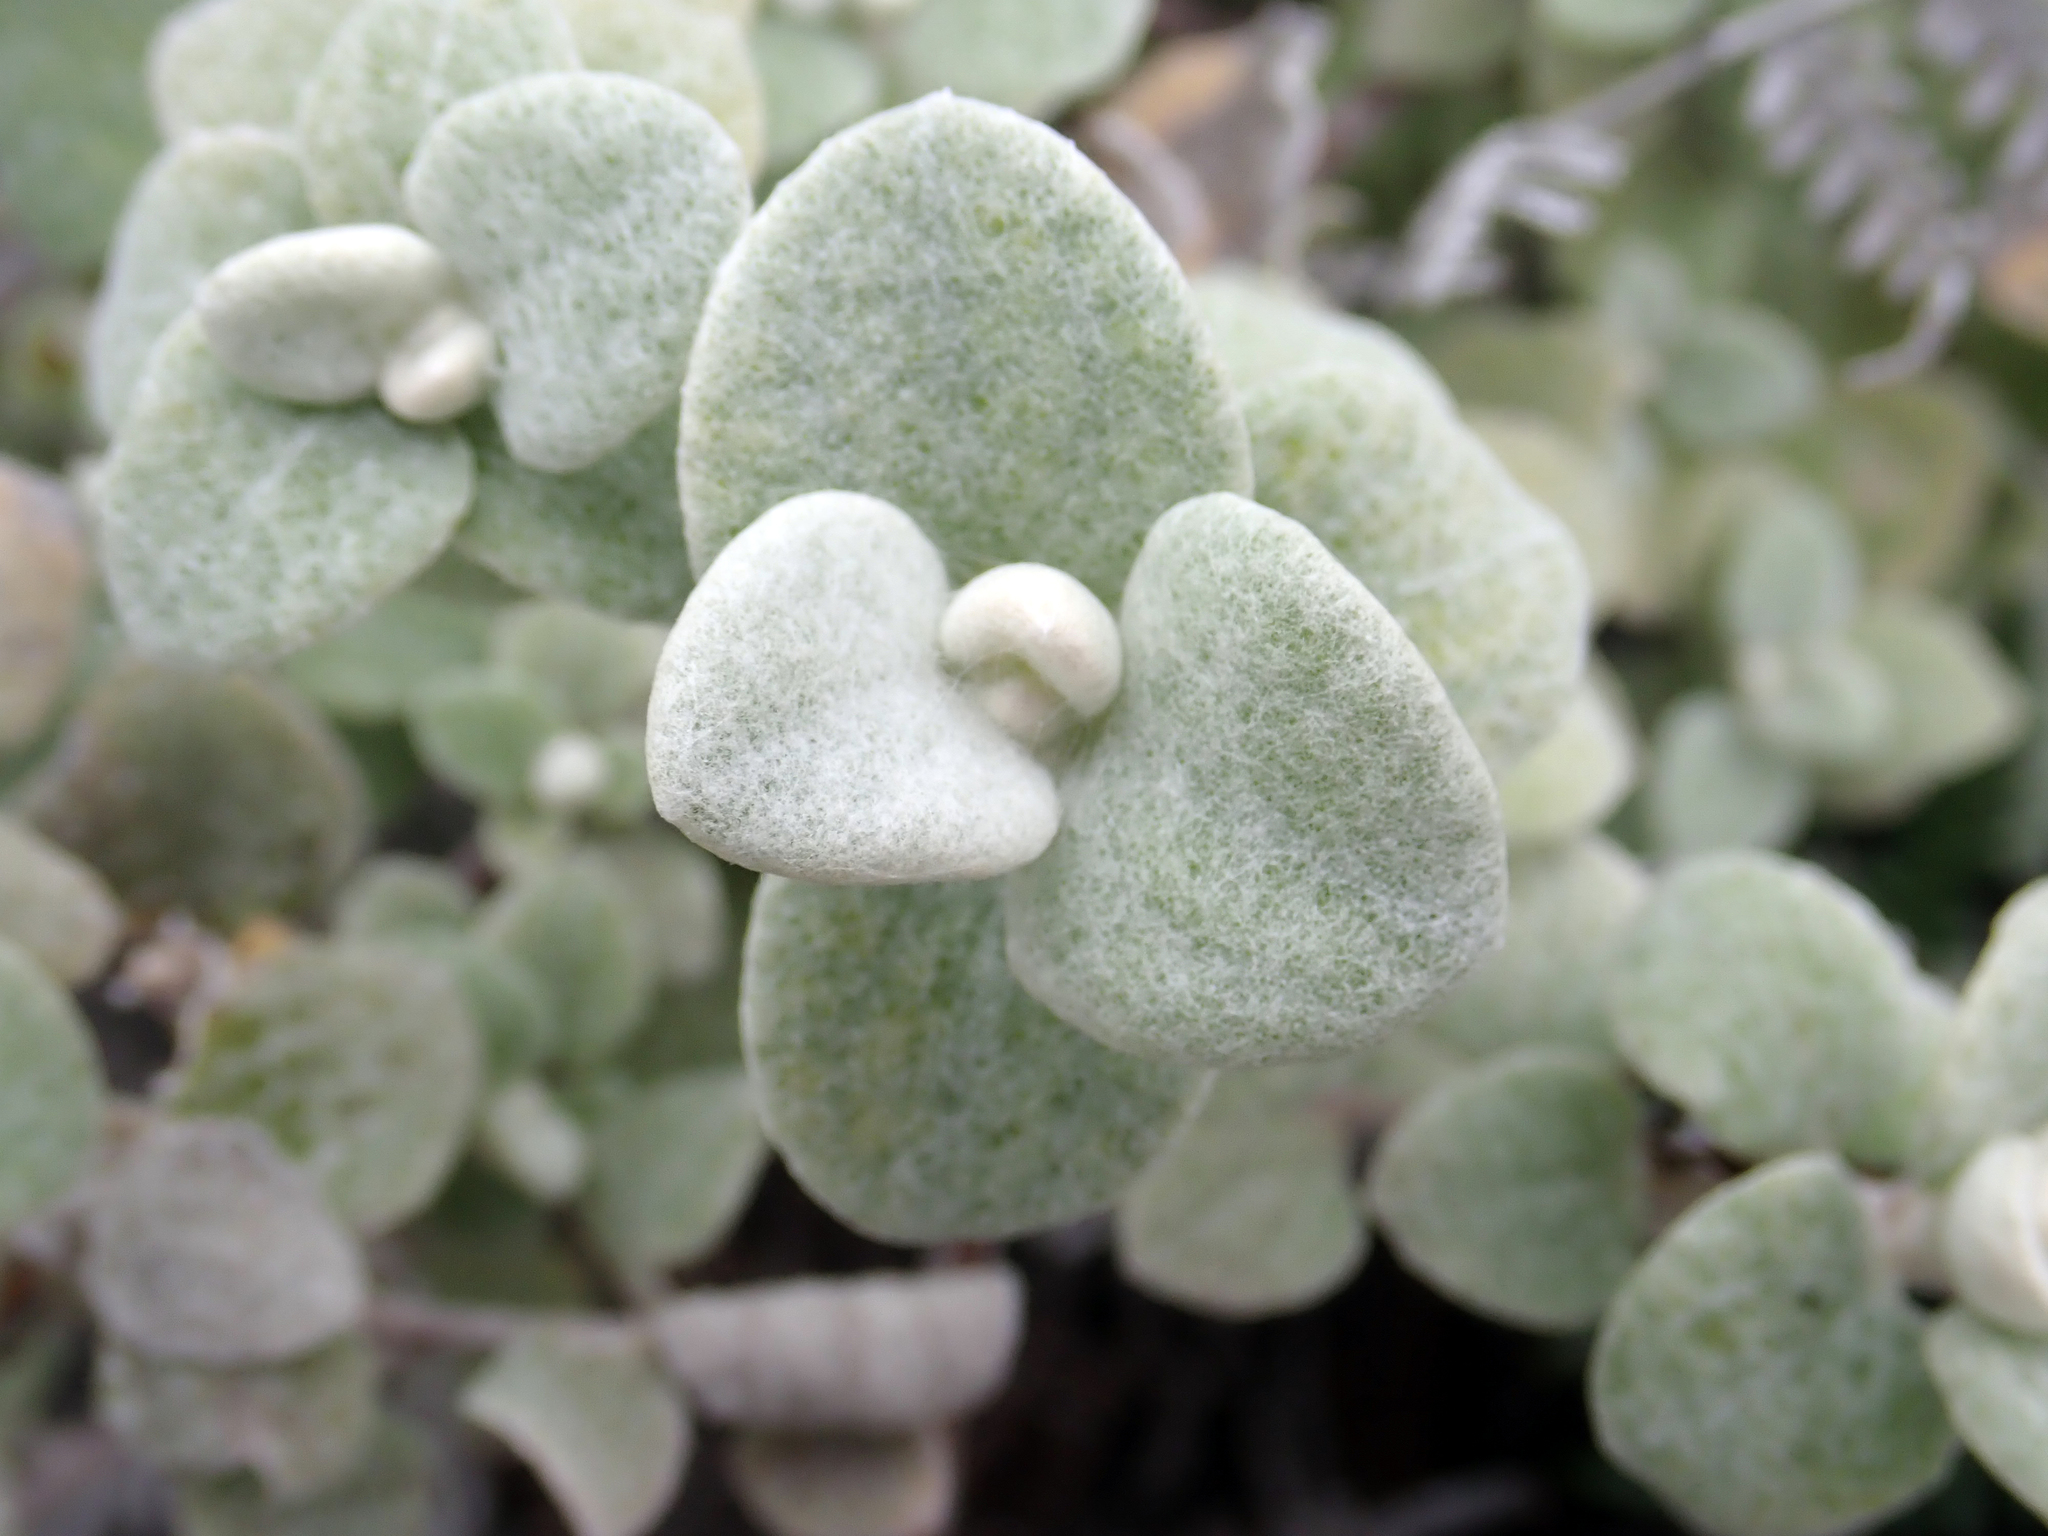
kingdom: Plantae
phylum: Tracheophyta
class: Magnoliopsida
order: Asterales
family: Asteraceae
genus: Helichrysum
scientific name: Helichrysum petiolare
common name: Licorice-plant
